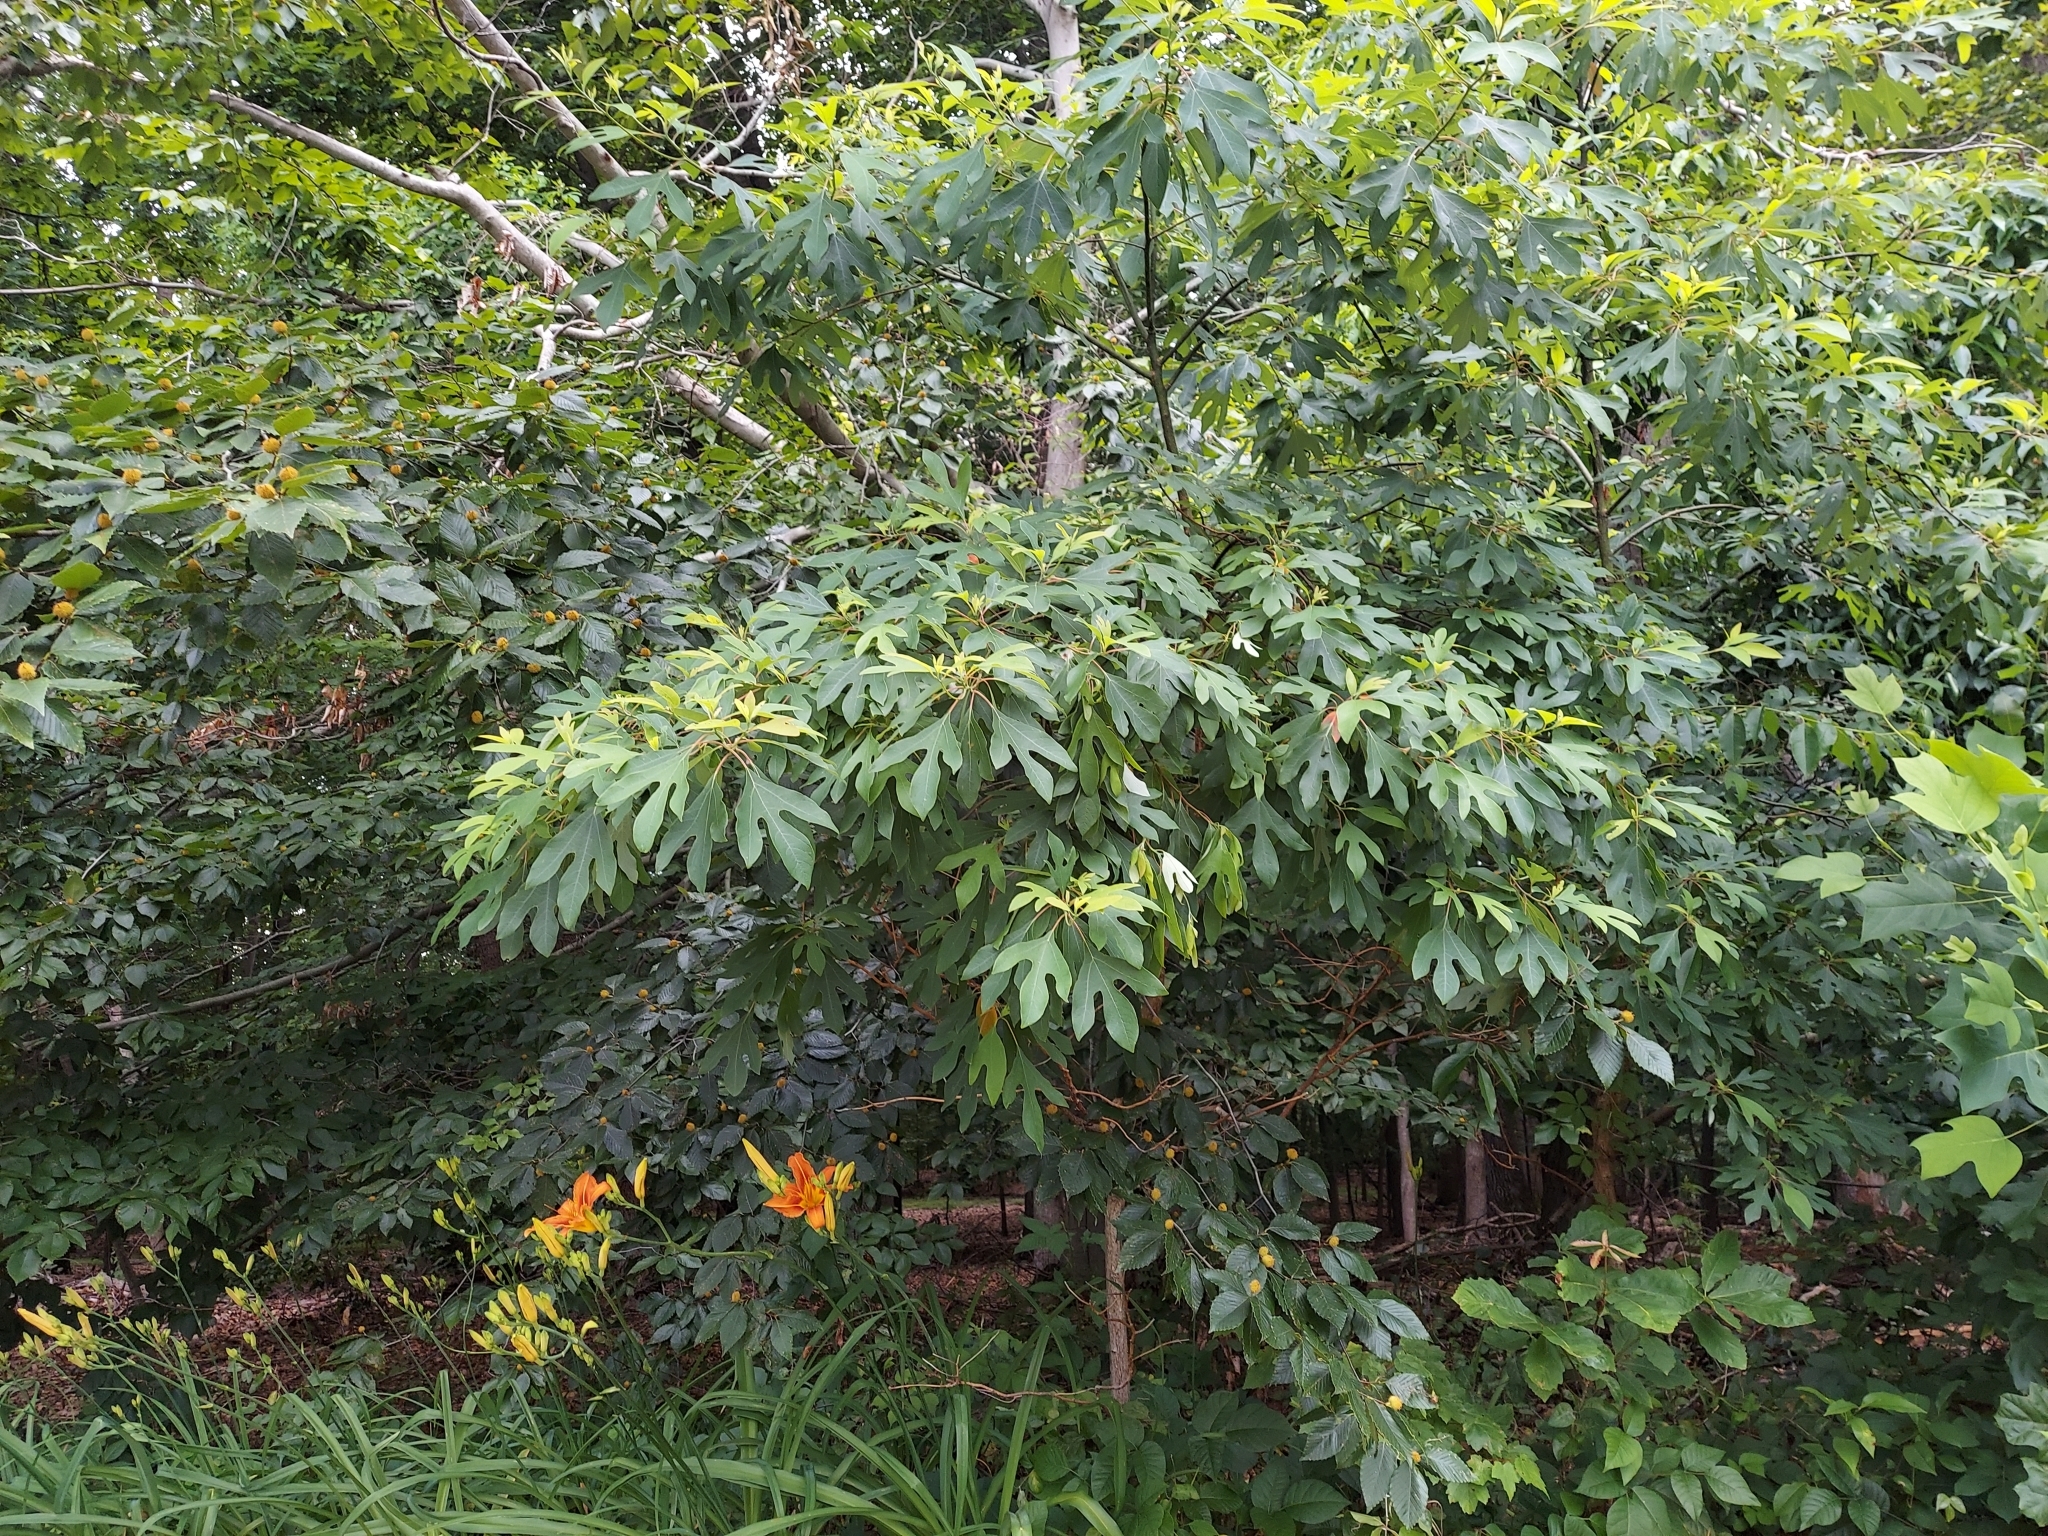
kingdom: Plantae
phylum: Tracheophyta
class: Magnoliopsida
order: Laurales
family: Lauraceae
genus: Sassafras
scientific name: Sassafras albidum
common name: Sassafras
